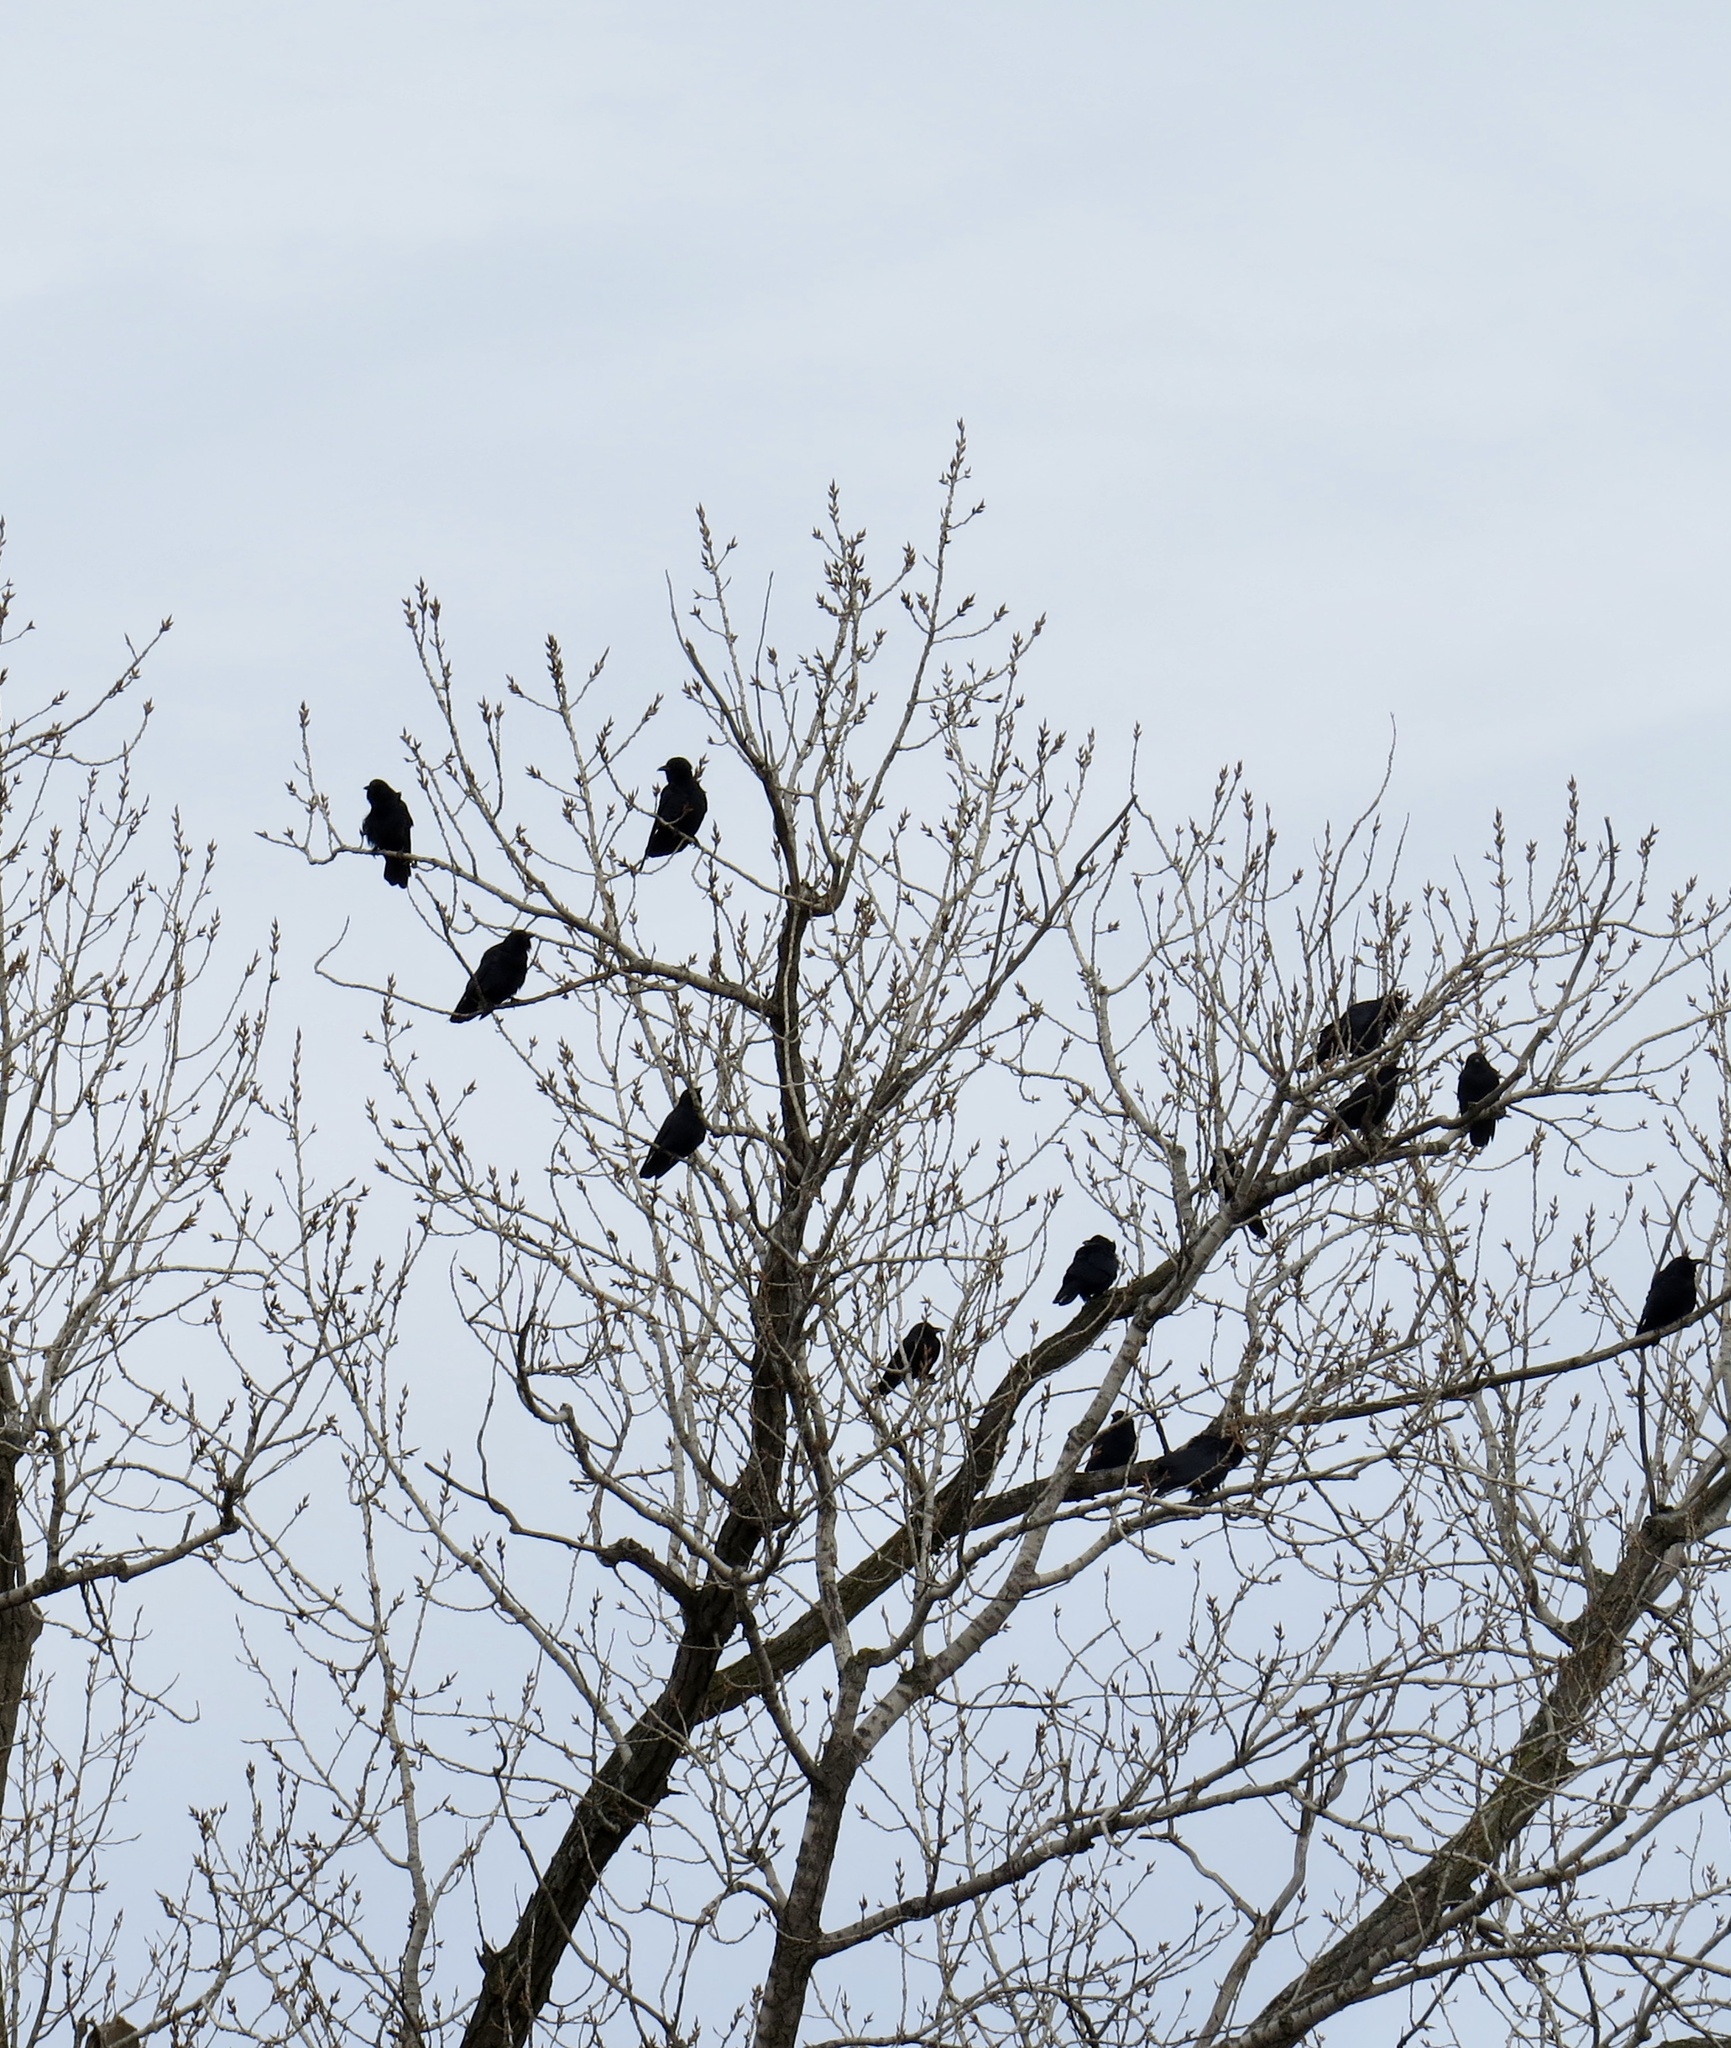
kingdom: Animalia
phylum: Chordata
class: Aves
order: Passeriformes
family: Corvidae
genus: Corvus
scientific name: Corvus ossifragus
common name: Fish crow
